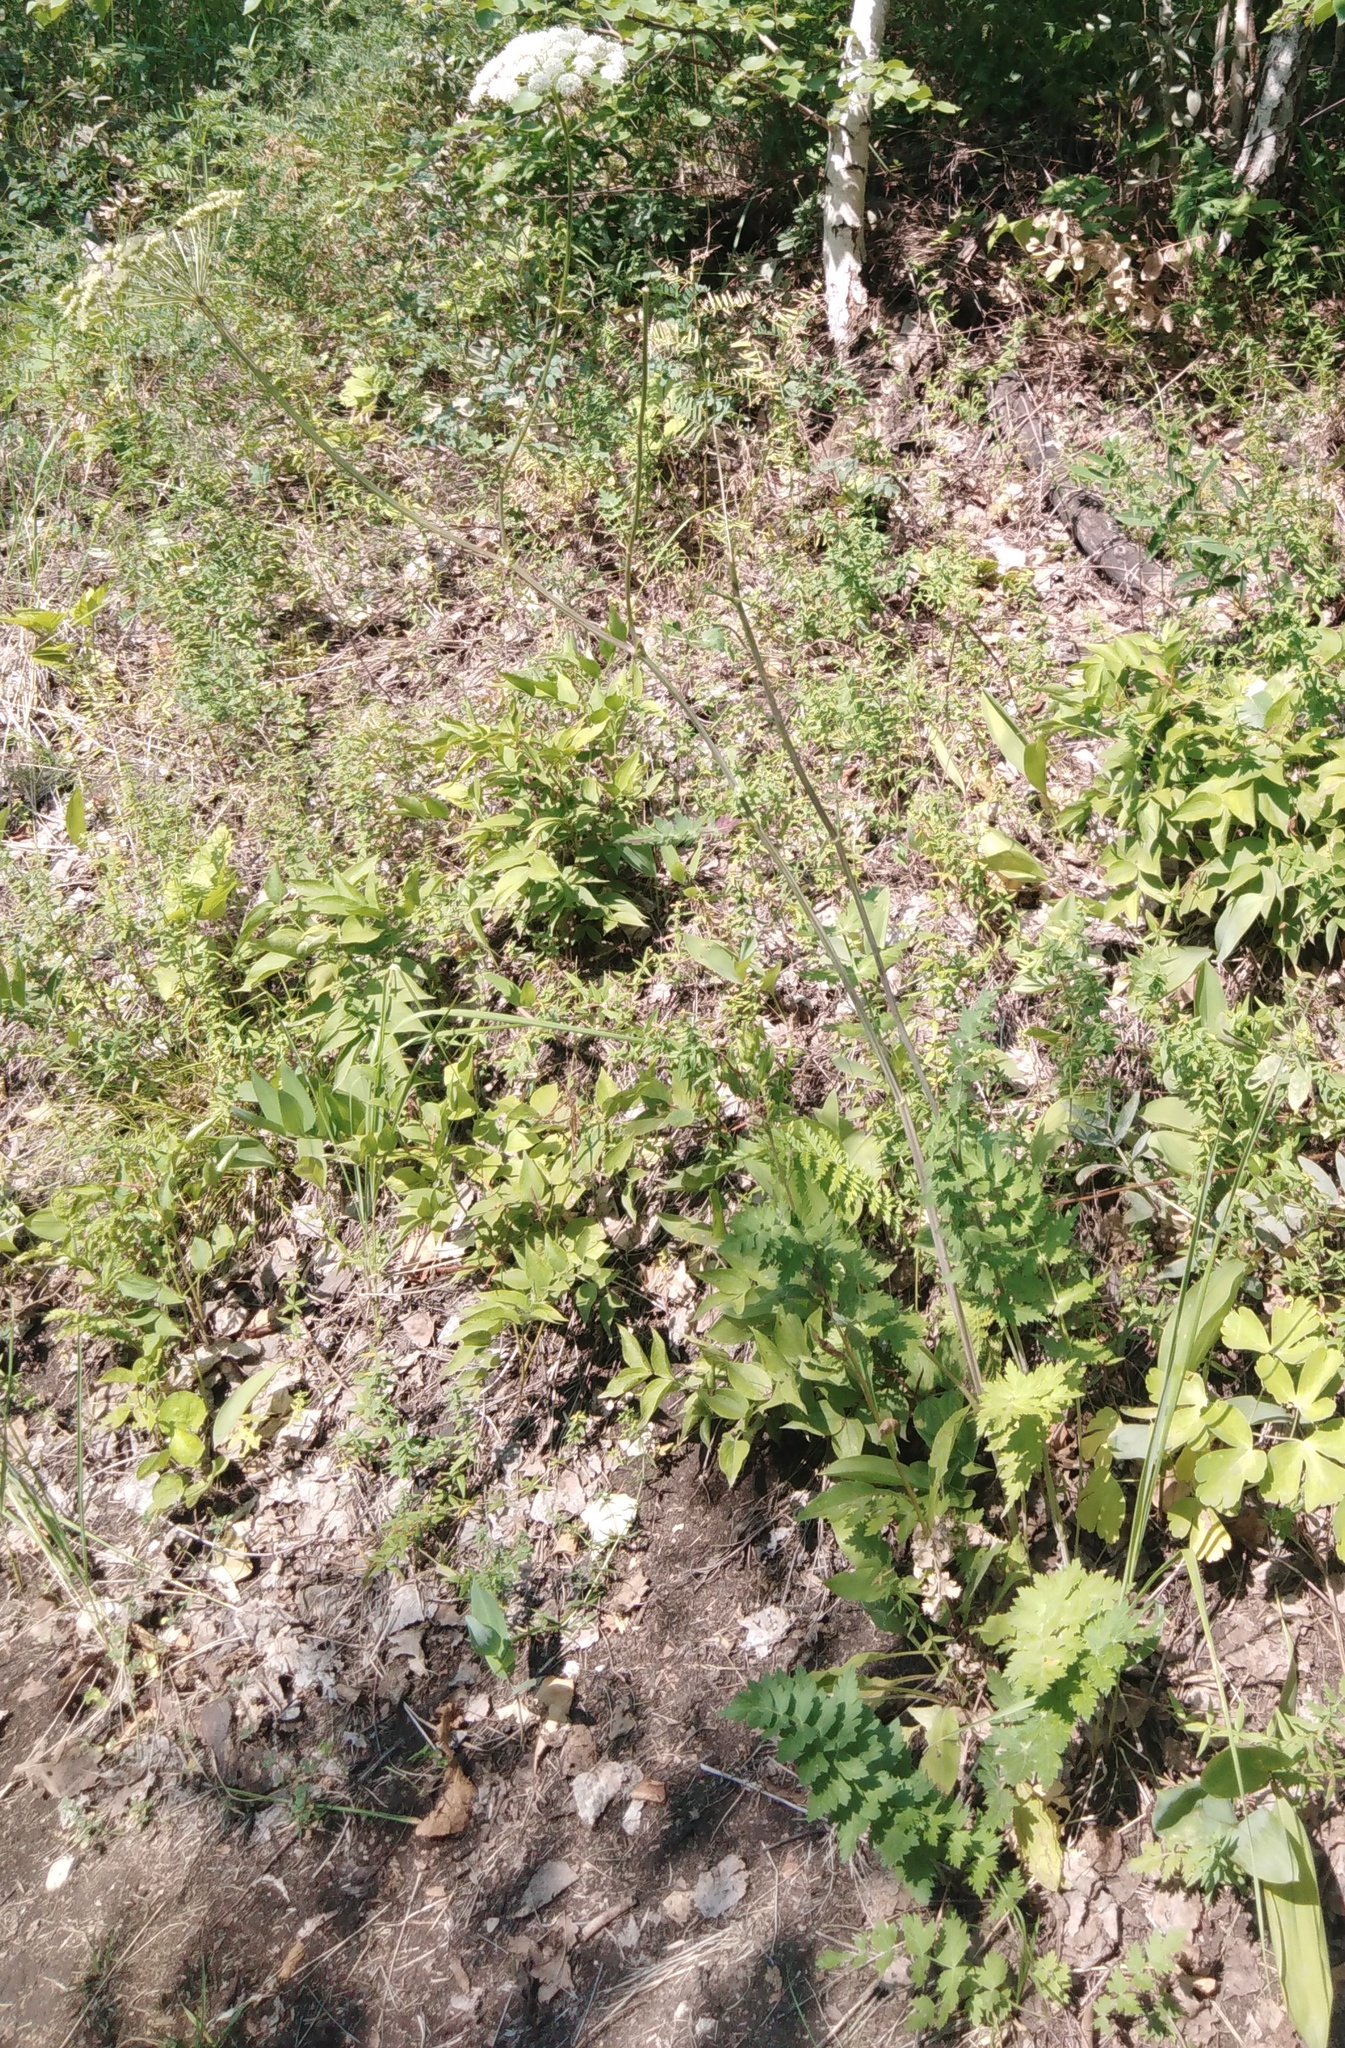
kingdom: Plantae
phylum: Tracheophyta
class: Magnoliopsida
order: Apiales
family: Apiaceae
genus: Seseli
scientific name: Seseli libanotis
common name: Mooncarrot
